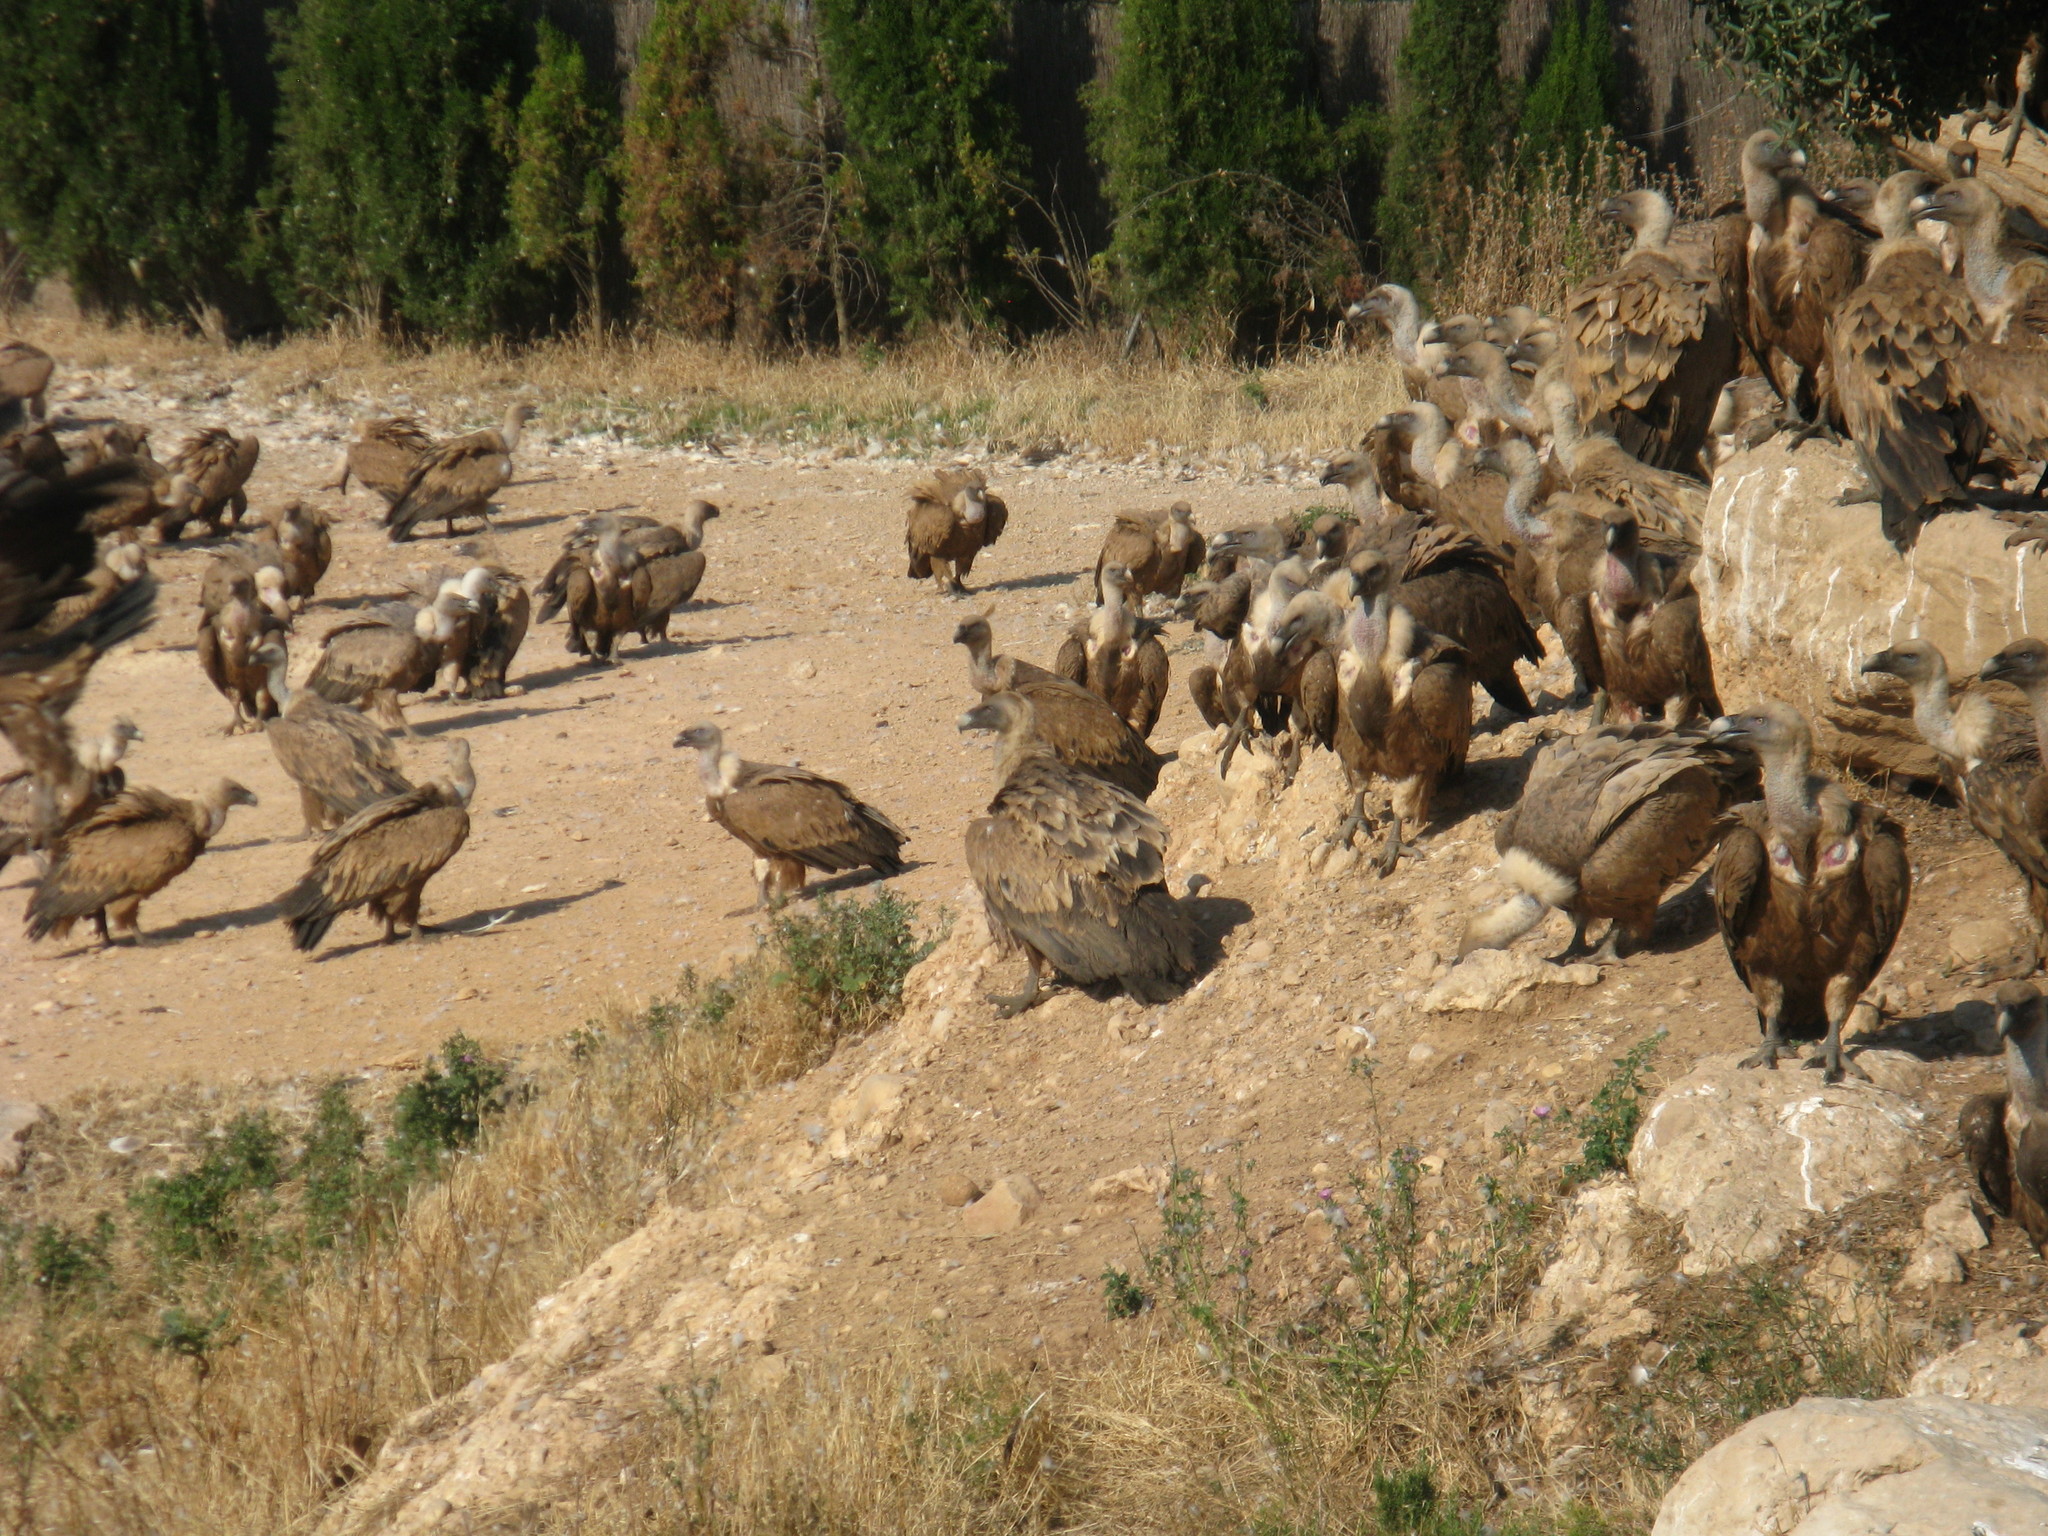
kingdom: Animalia
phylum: Chordata
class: Aves
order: Accipitriformes
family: Accipitridae
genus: Gyps
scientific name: Gyps fulvus
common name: Griffon vulture
